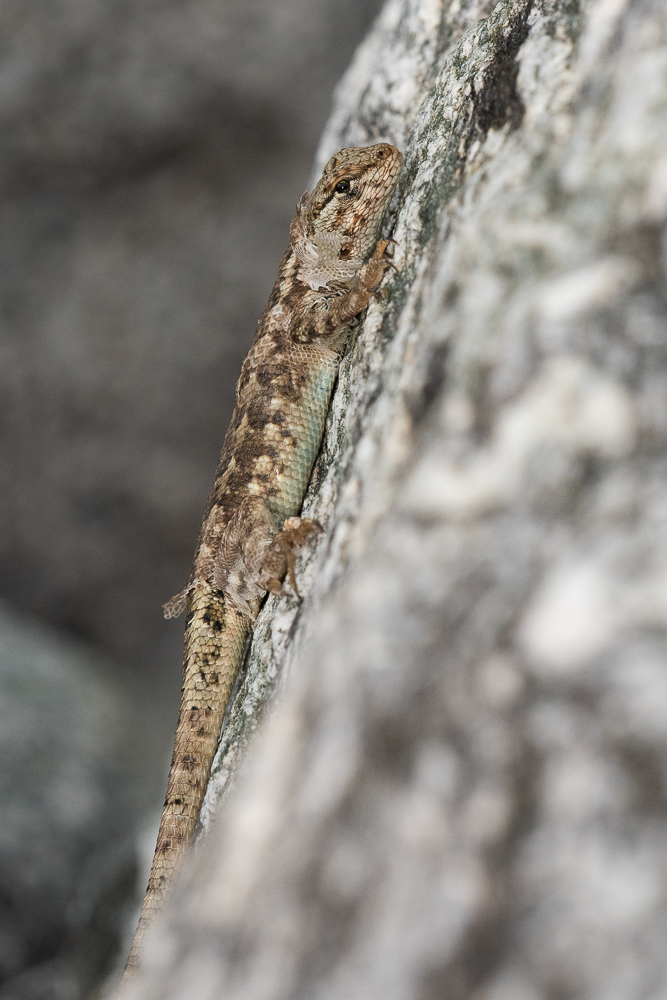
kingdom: Animalia
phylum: Chordata
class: Squamata
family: Phrynosomatidae
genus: Sceloporus
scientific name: Sceloporus graciosus
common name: Sagebrush lizard
